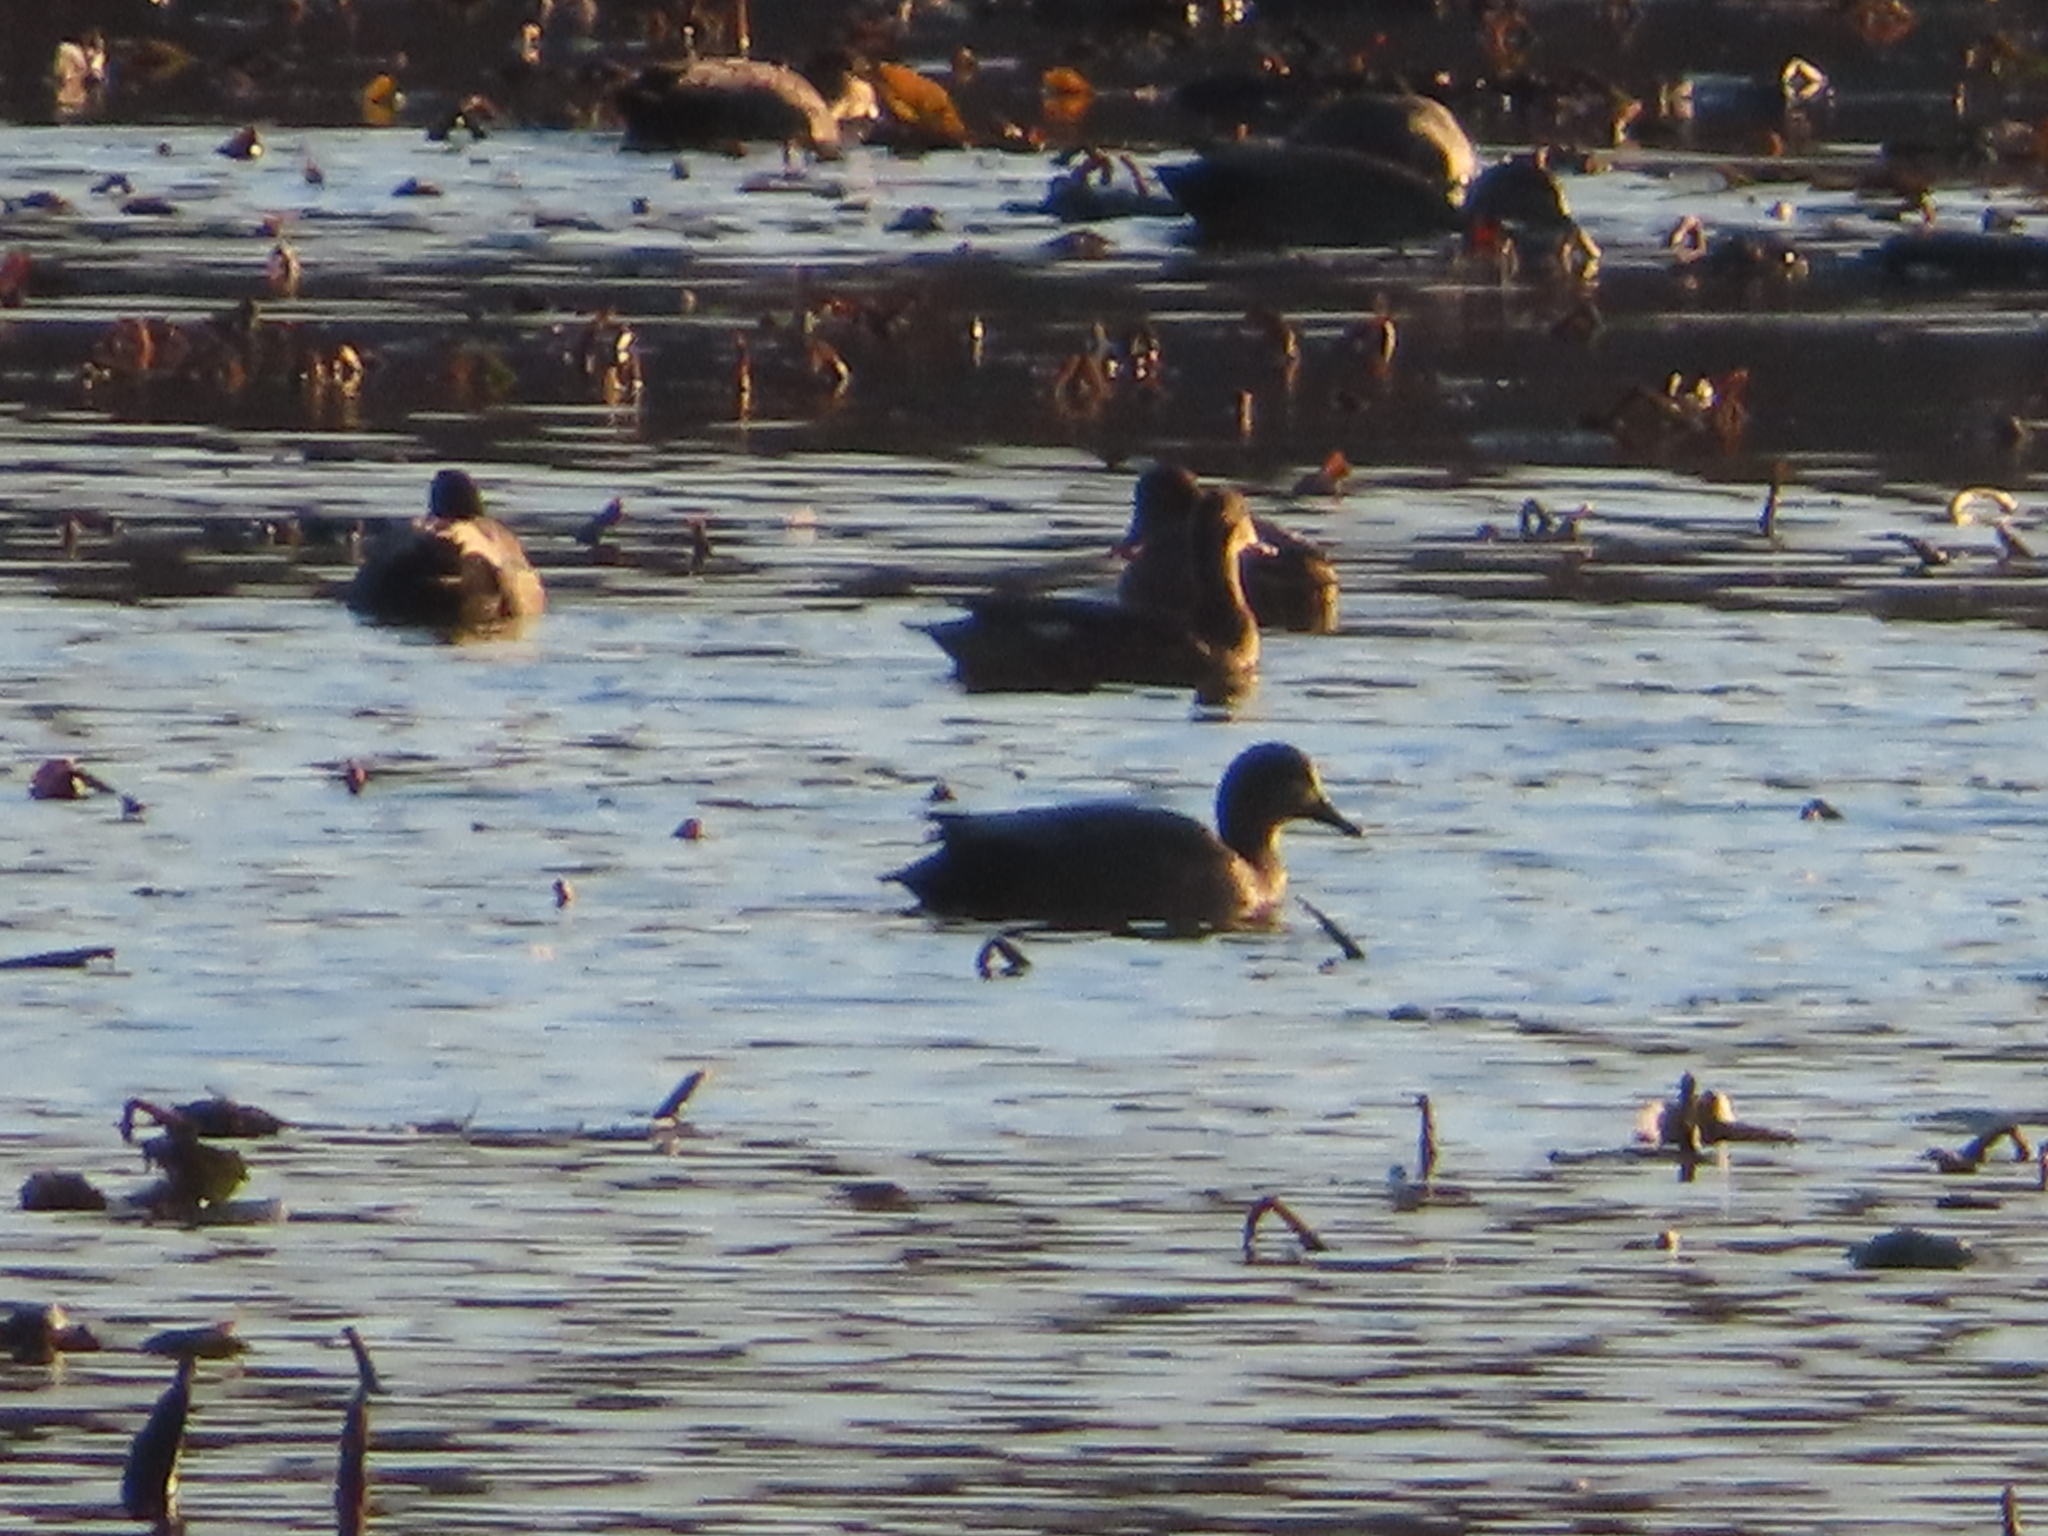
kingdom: Animalia
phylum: Chordata
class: Aves
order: Anseriformes
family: Anatidae
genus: Mareca
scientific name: Mareca strepera
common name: Gadwall
